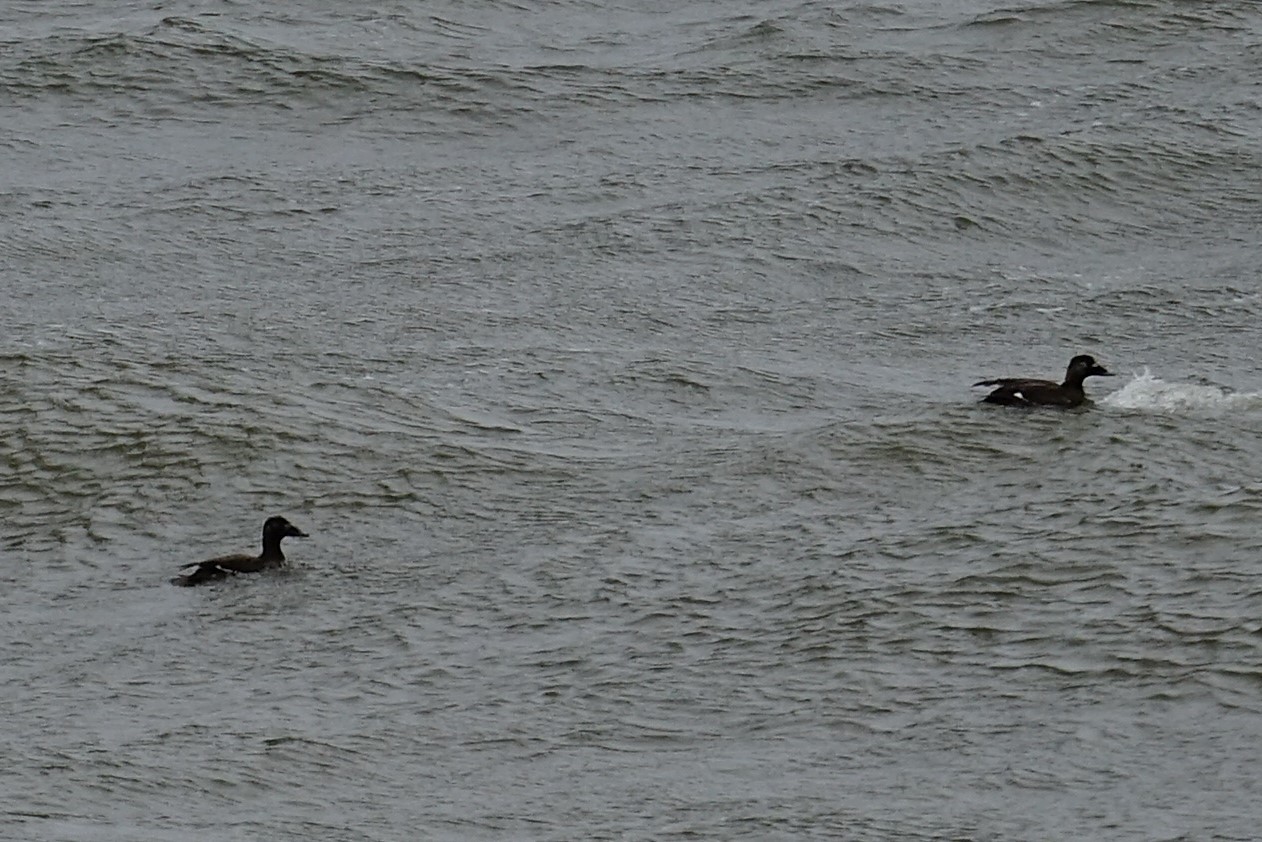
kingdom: Animalia
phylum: Chordata
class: Aves
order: Anseriformes
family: Anatidae
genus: Melanitta
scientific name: Melanitta deglandi
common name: White-winged scoter
